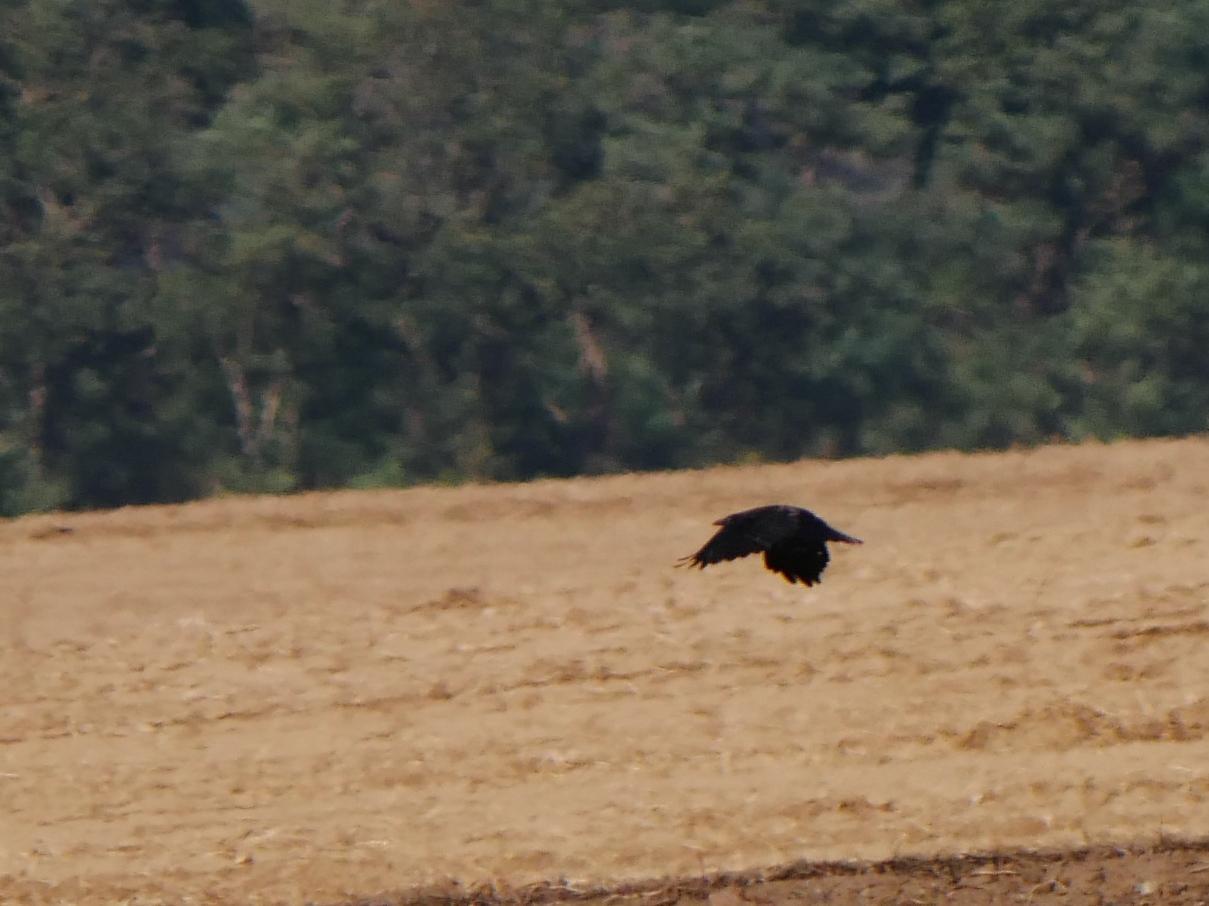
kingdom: Animalia
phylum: Chordata
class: Aves
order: Passeriformes
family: Corvidae
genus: Corvus
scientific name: Corvus corone
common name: Carrion crow
